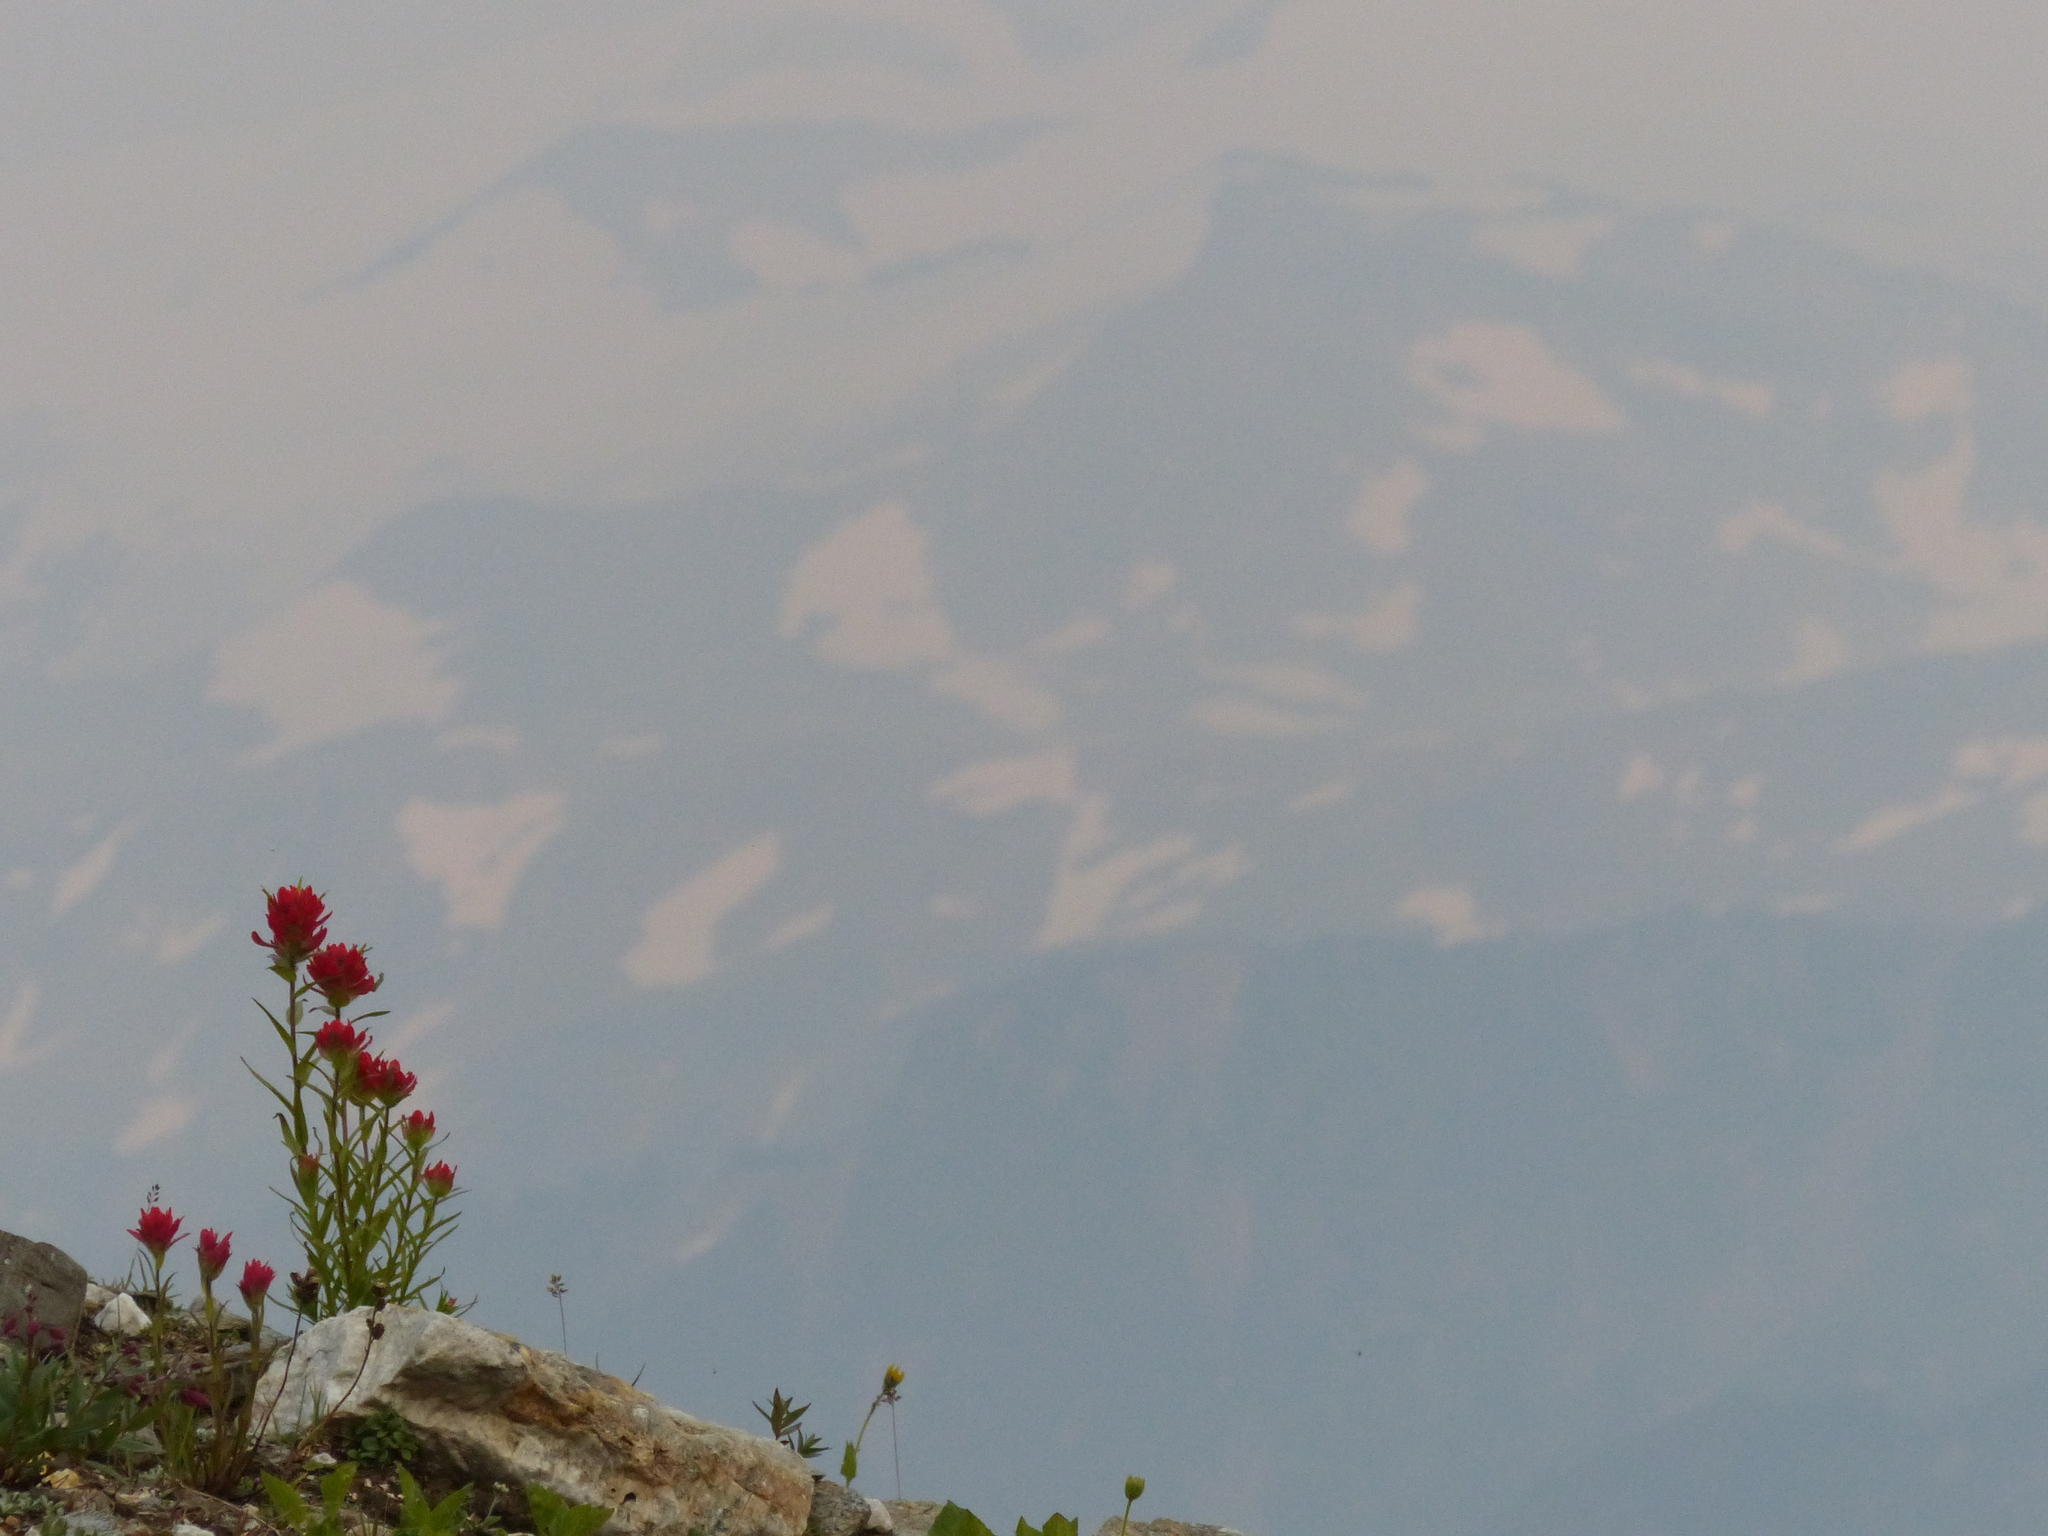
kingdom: Plantae
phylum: Tracheophyta
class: Magnoliopsida
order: Lamiales
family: Orobanchaceae
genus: Castilleja
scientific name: Castilleja rhexifolia
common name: Rocky mountain paintbrush
